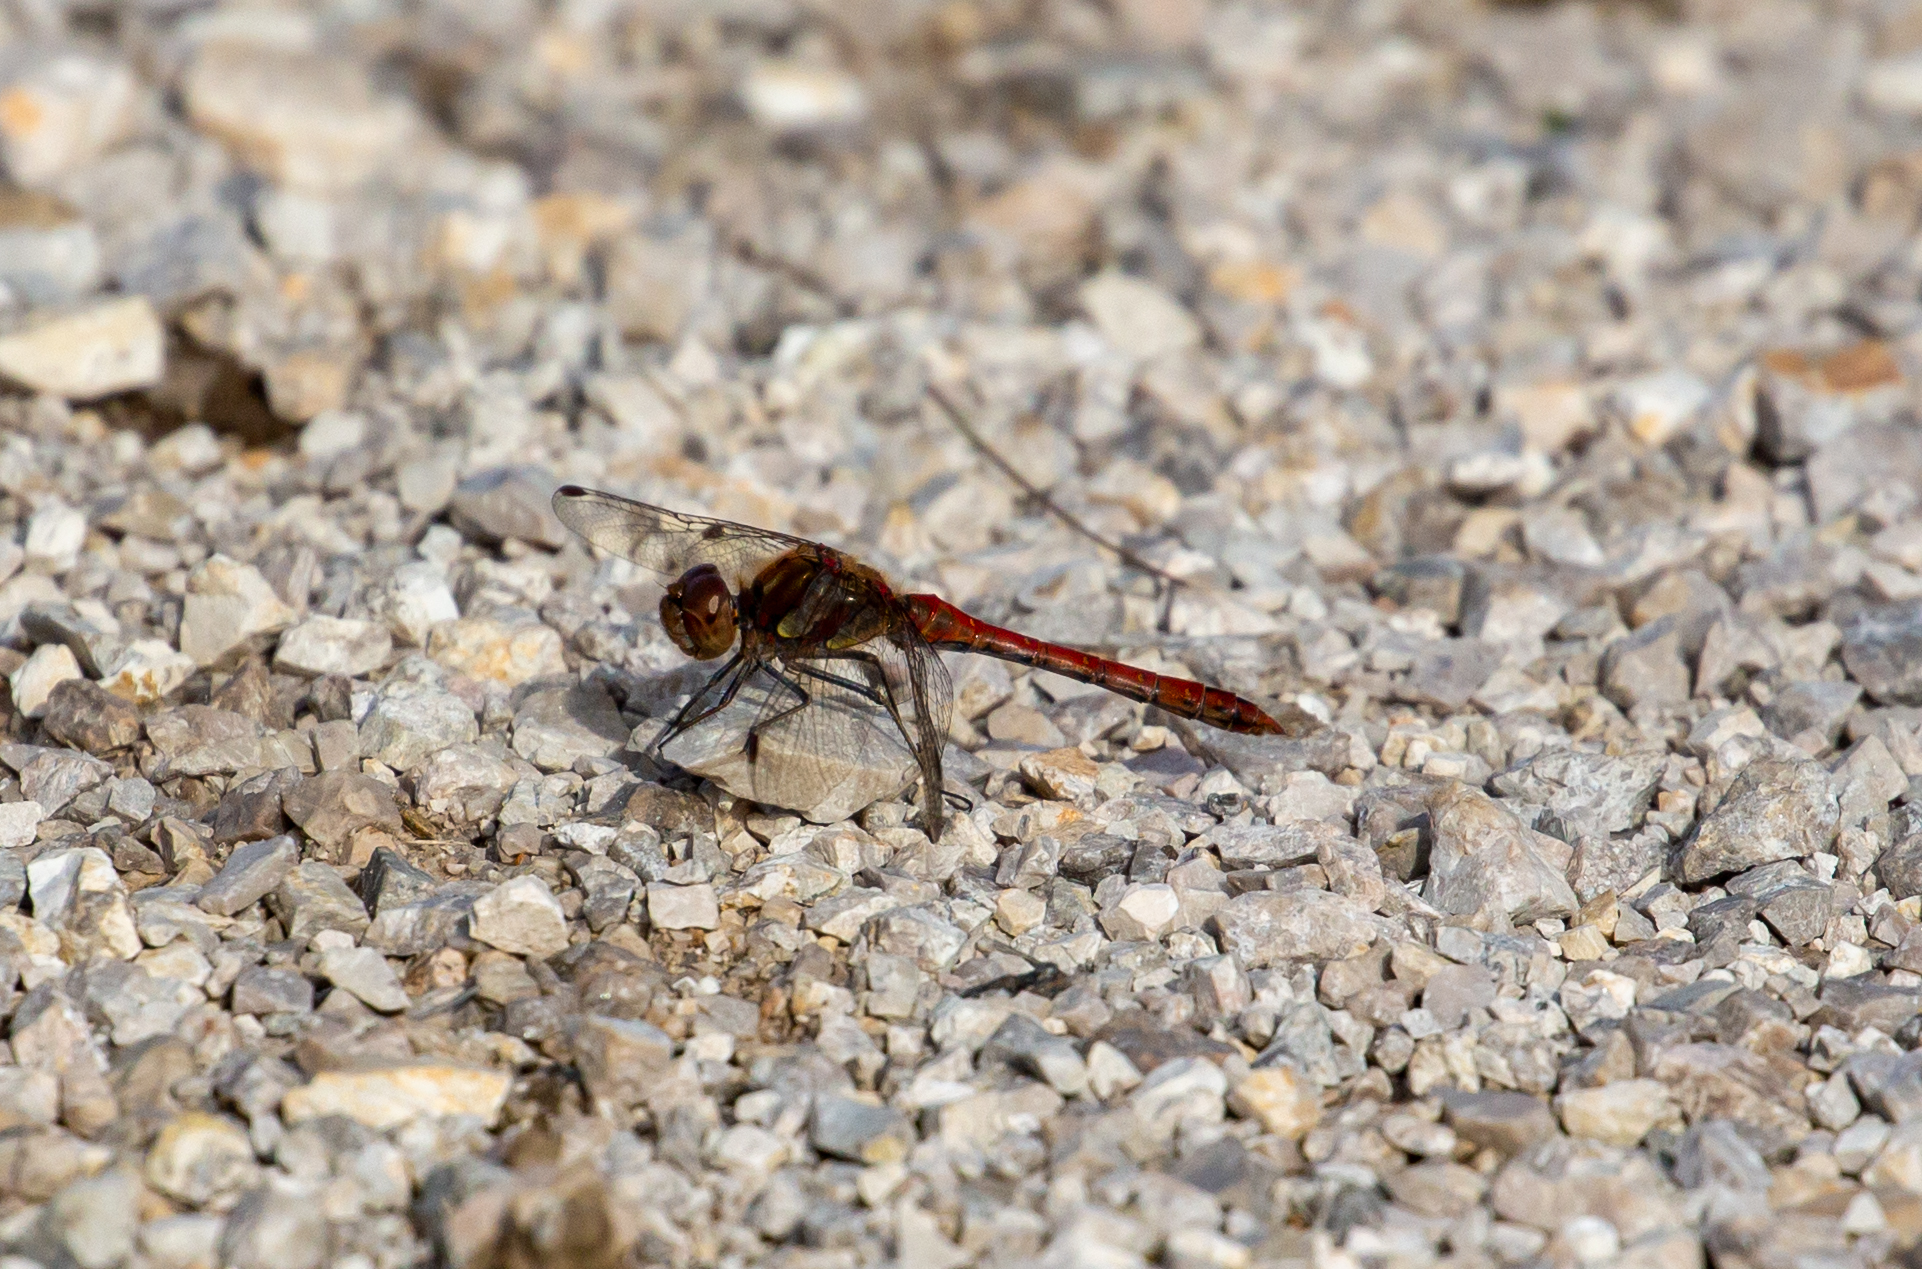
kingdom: Animalia
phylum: Arthropoda
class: Insecta
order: Odonata
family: Libellulidae
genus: Sympetrum
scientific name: Sympetrum striolatum
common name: Common darter
